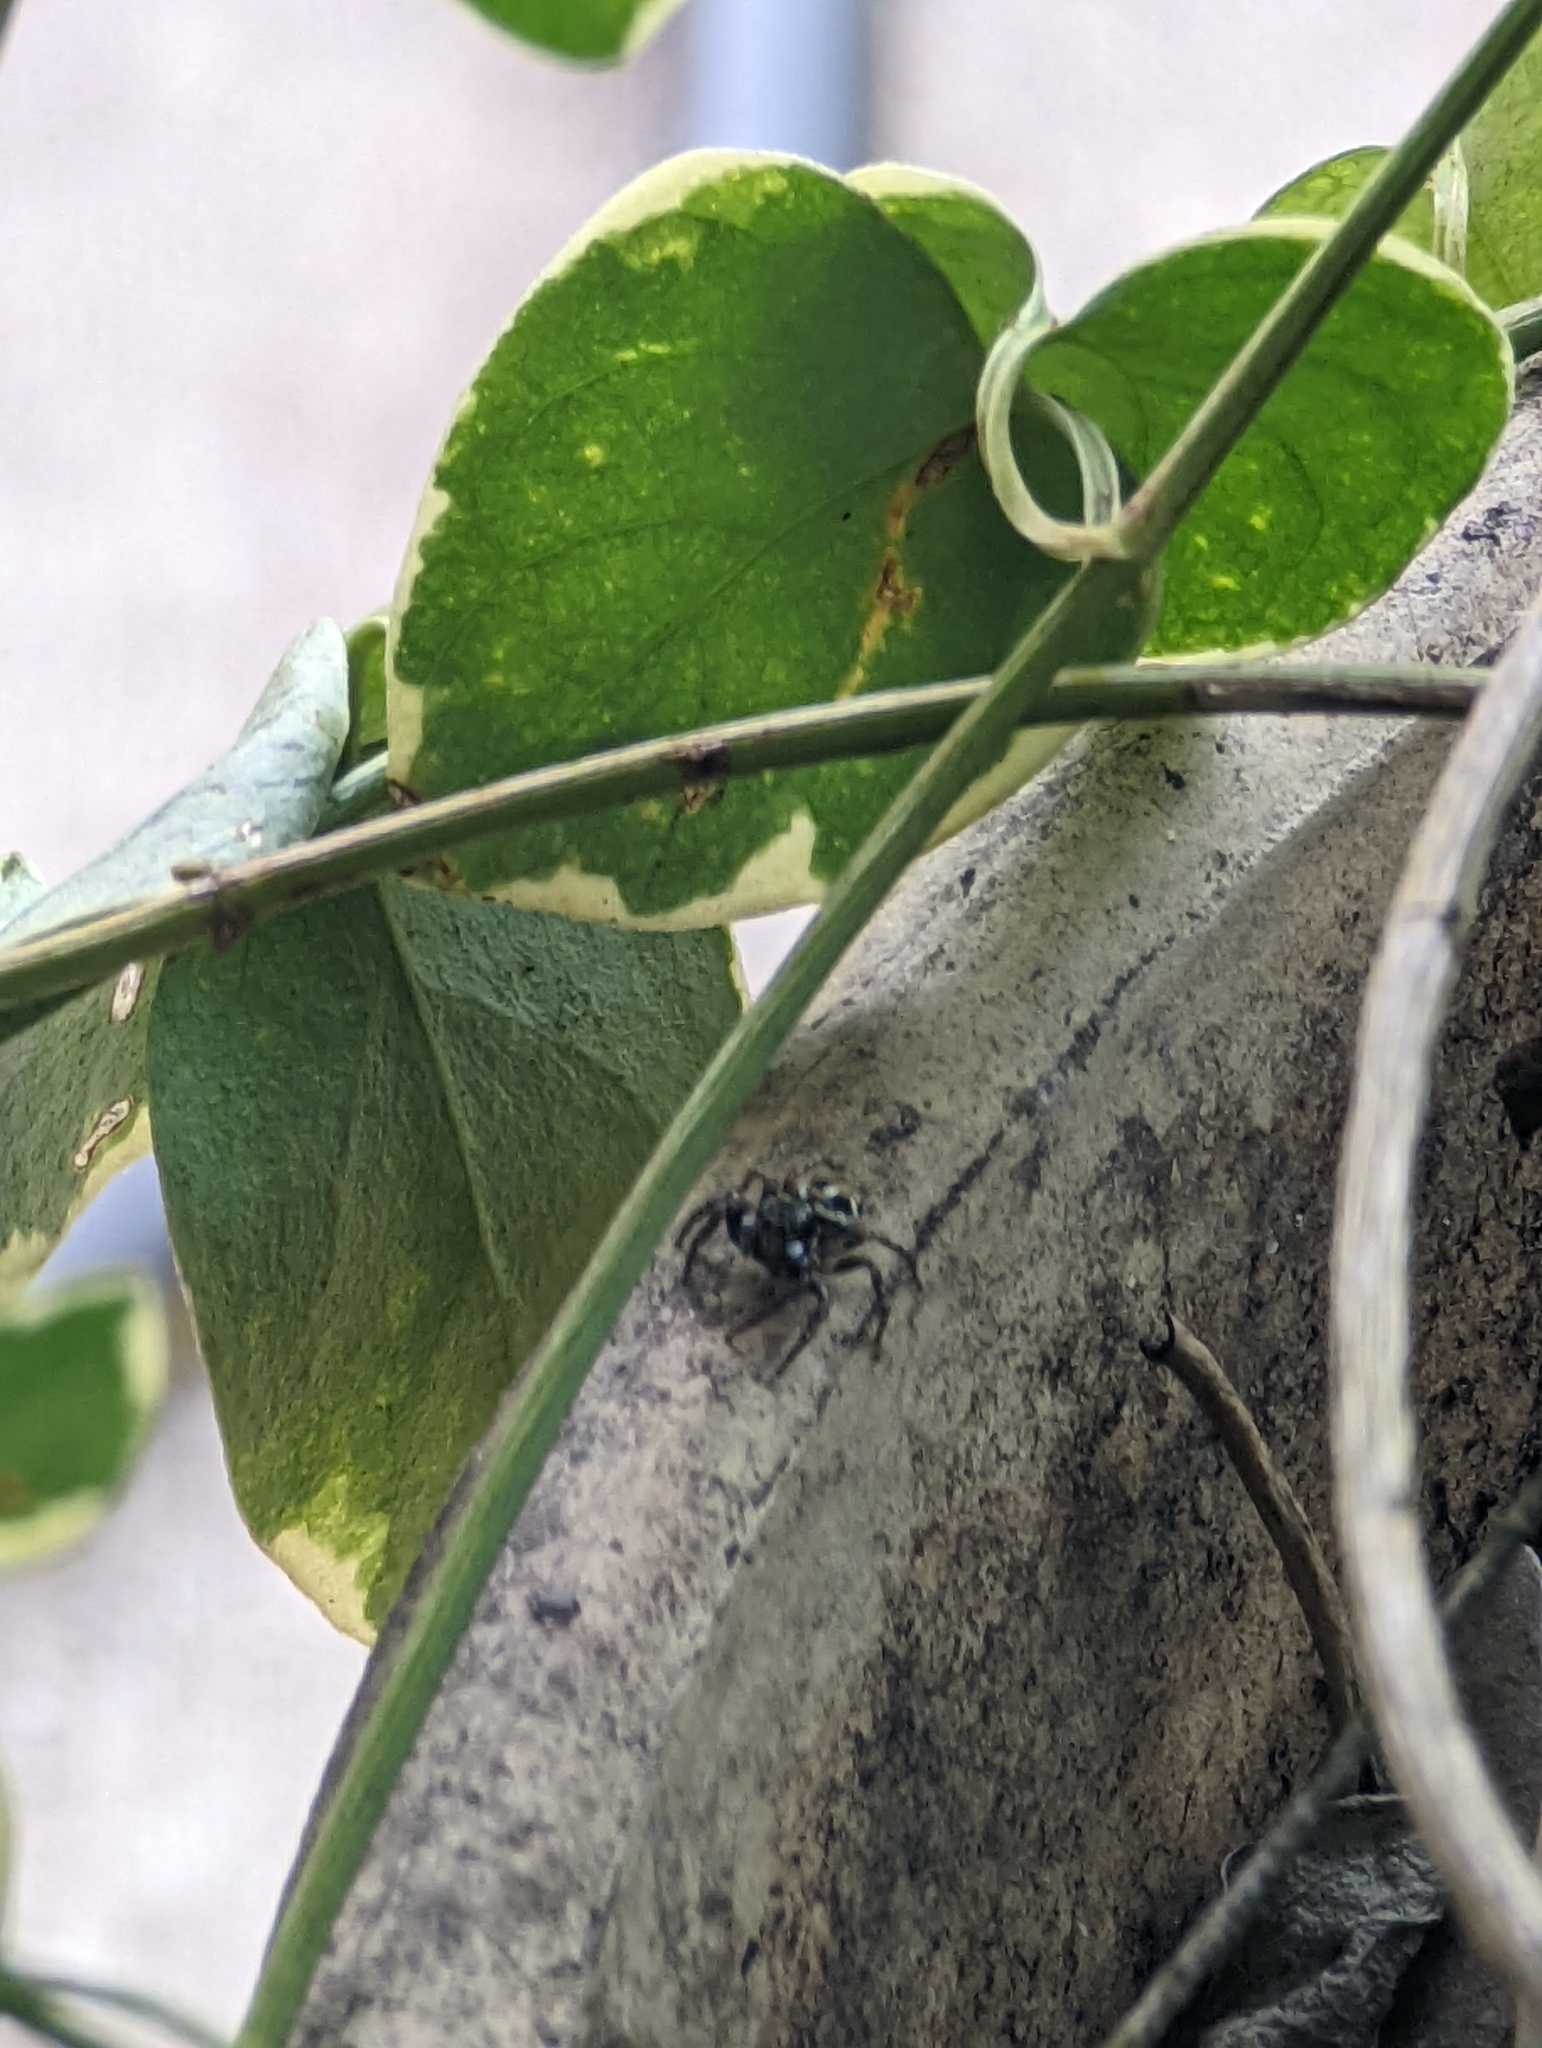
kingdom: Animalia
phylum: Arthropoda
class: Arachnida
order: Araneae
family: Salticidae
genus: Anasaitis
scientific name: Anasaitis canosa
